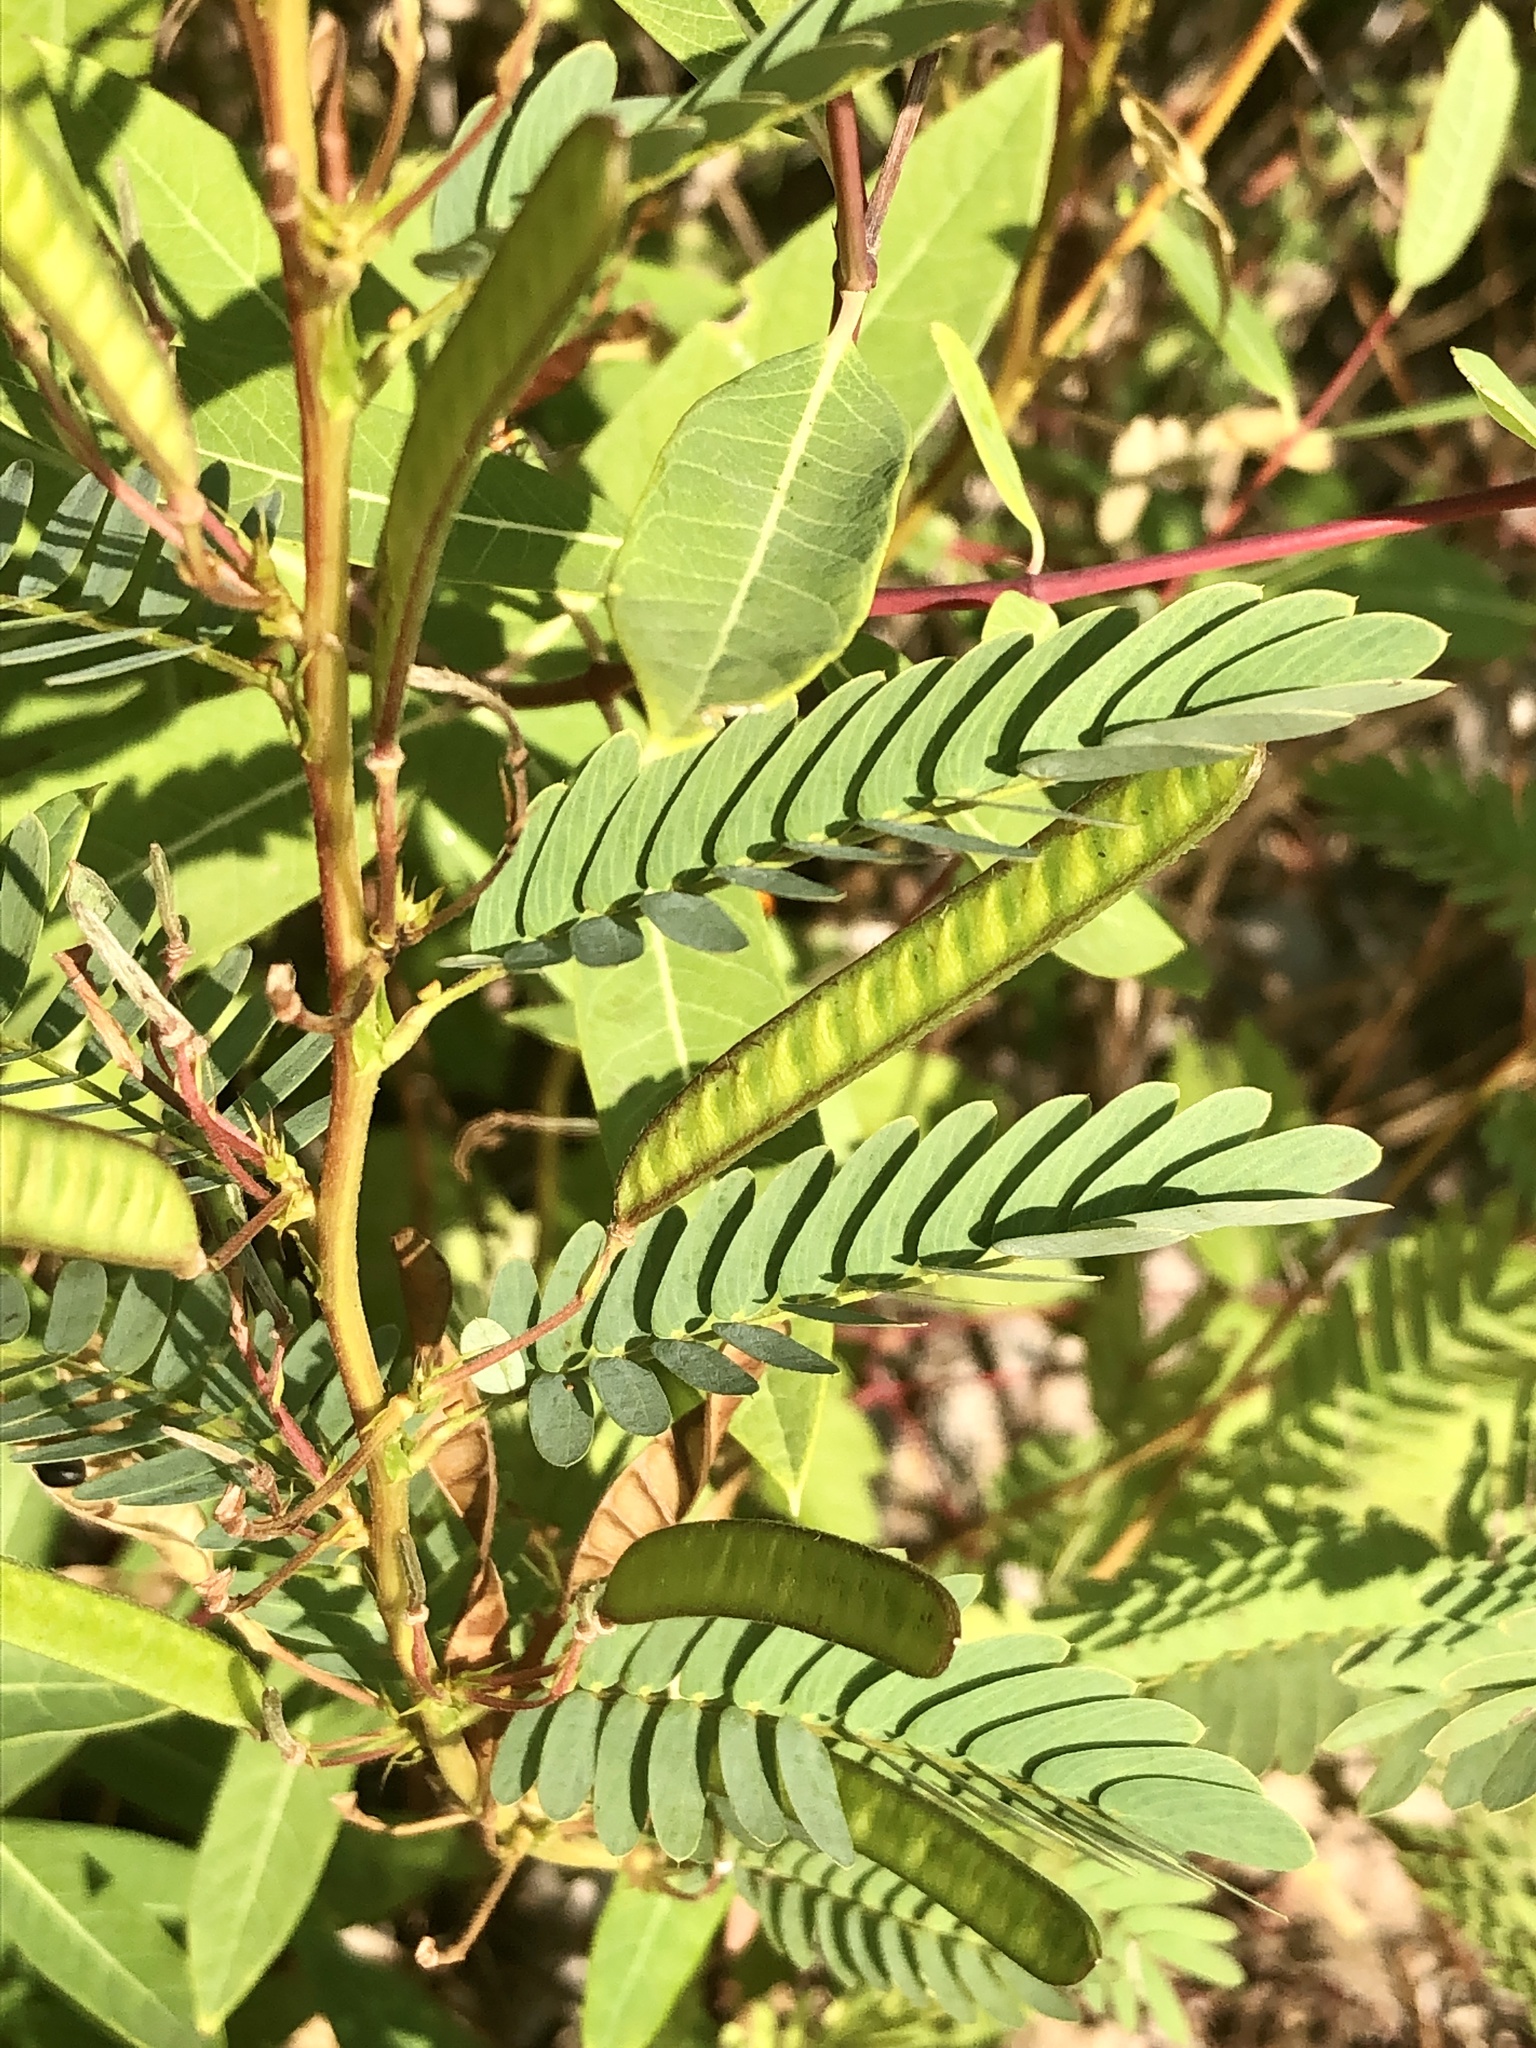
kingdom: Plantae
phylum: Tracheophyta
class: Magnoliopsida
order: Fabales
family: Fabaceae
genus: Chamaecrista
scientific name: Chamaecrista fasciculata
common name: Golden cassia
